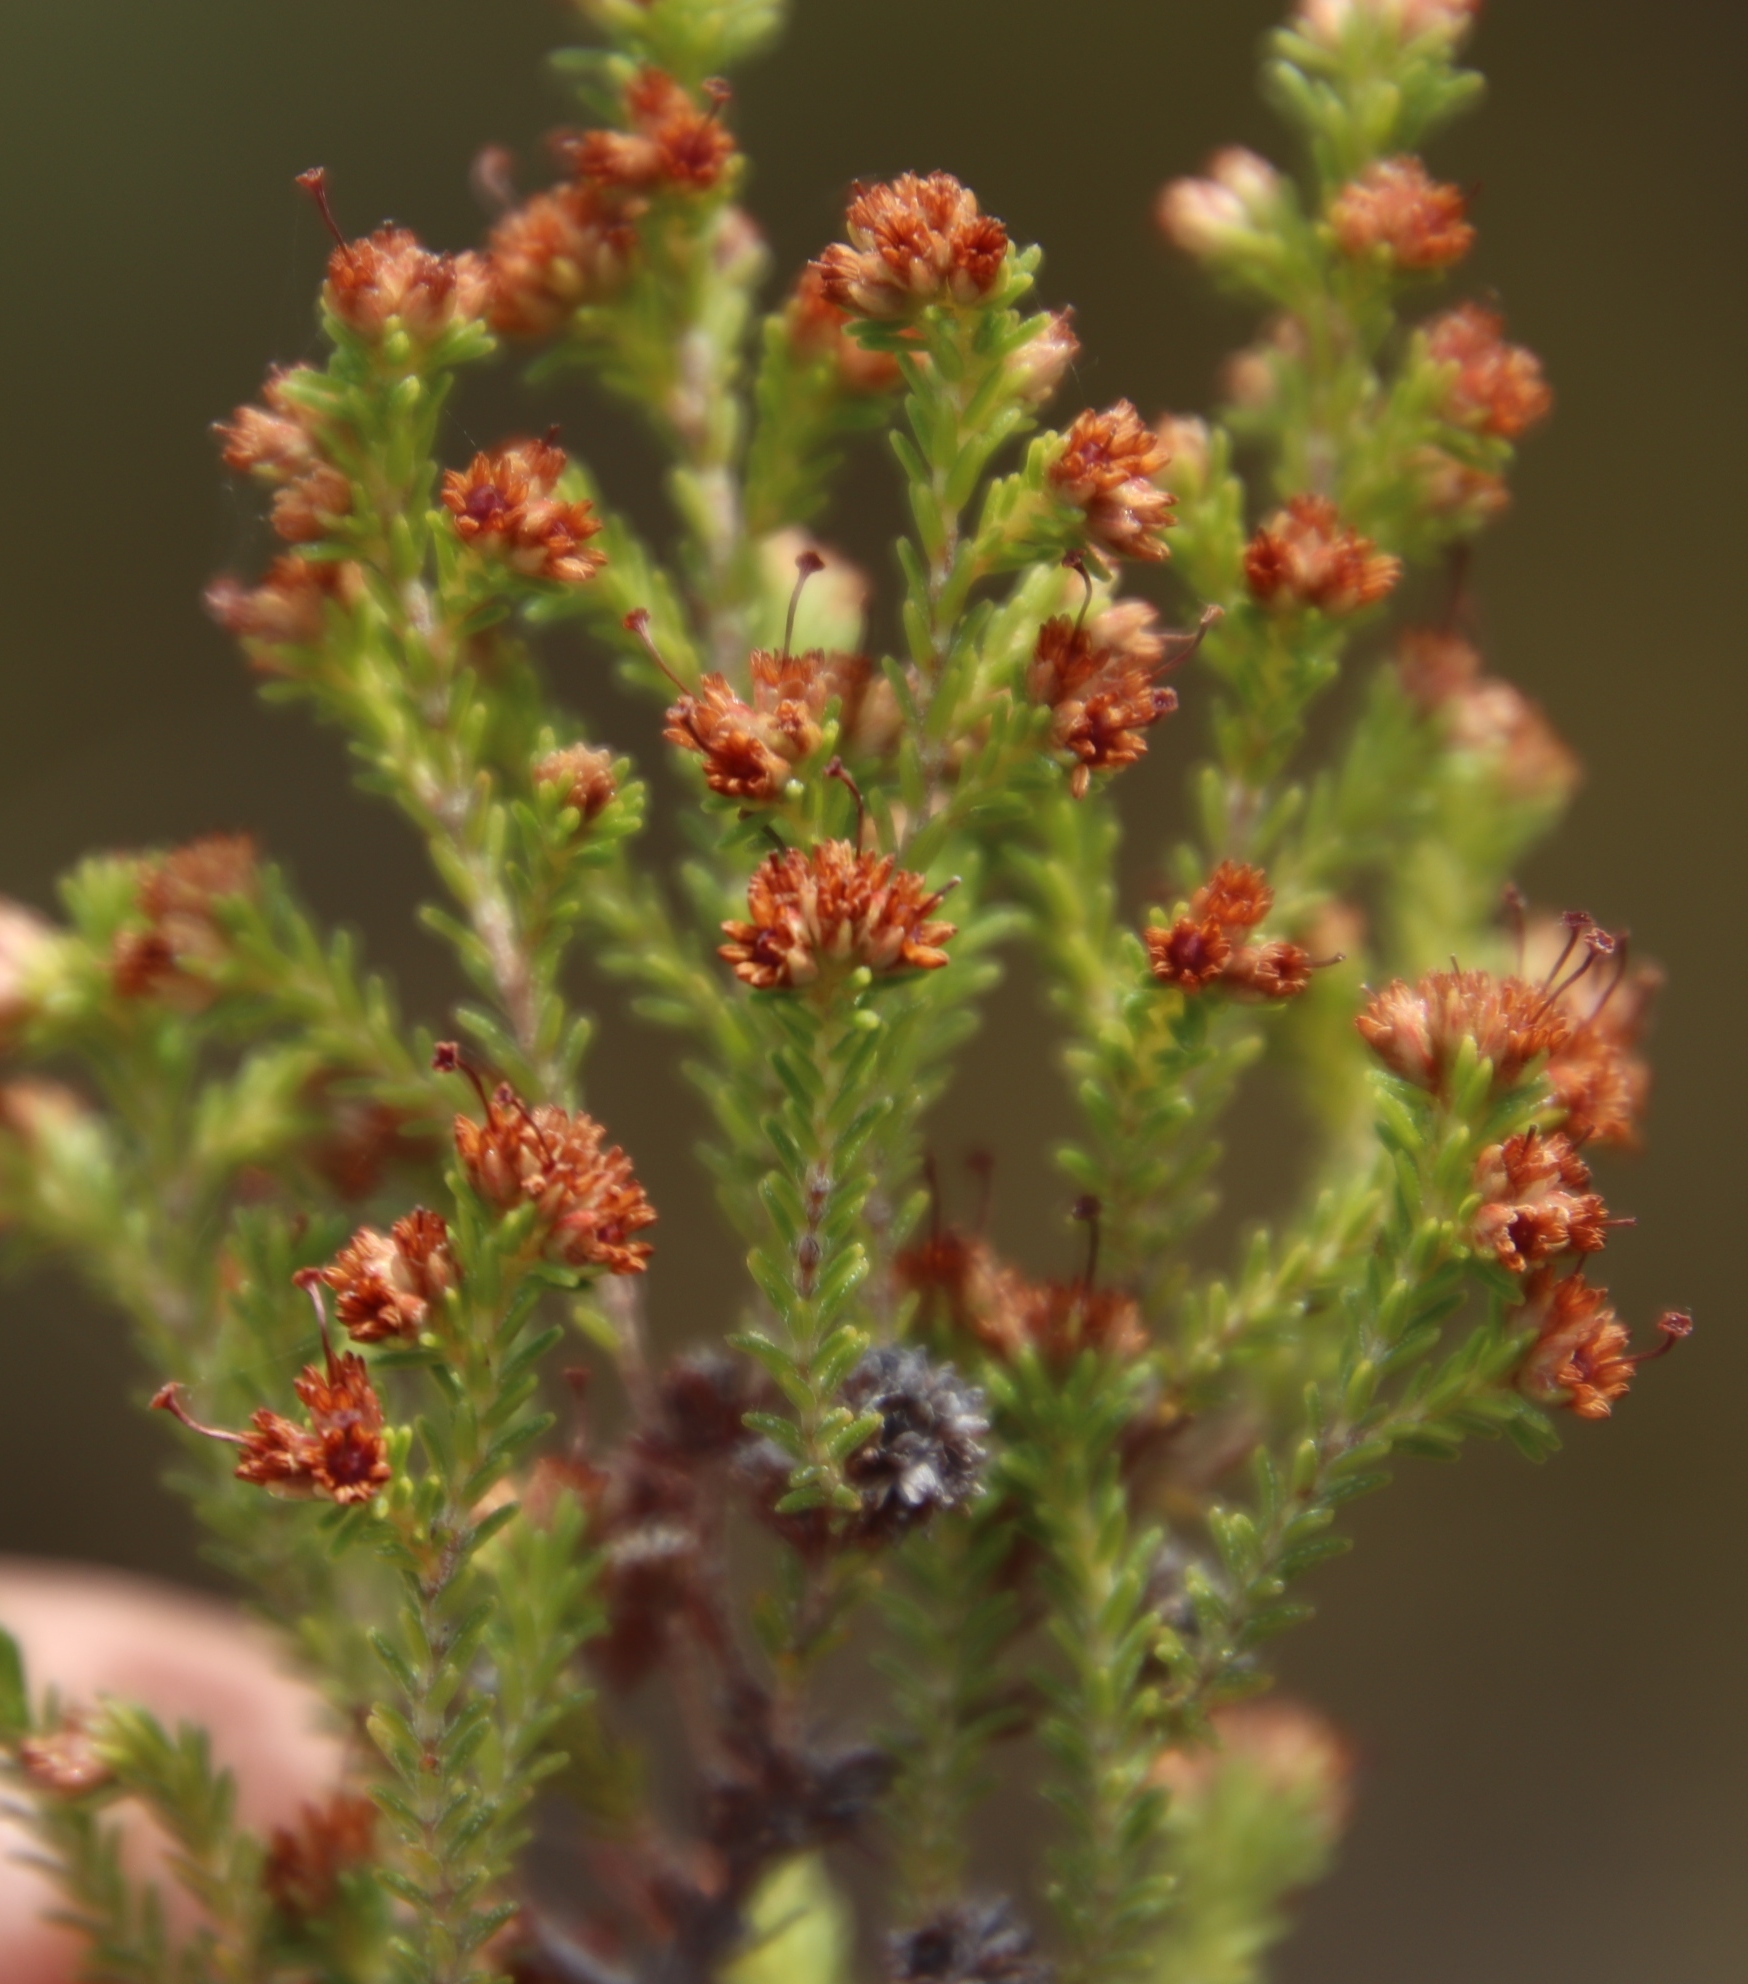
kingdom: Plantae
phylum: Tracheophyta
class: Magnoliopsida
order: Ericales
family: Ericaceae
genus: Erica
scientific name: Erica lasciva
